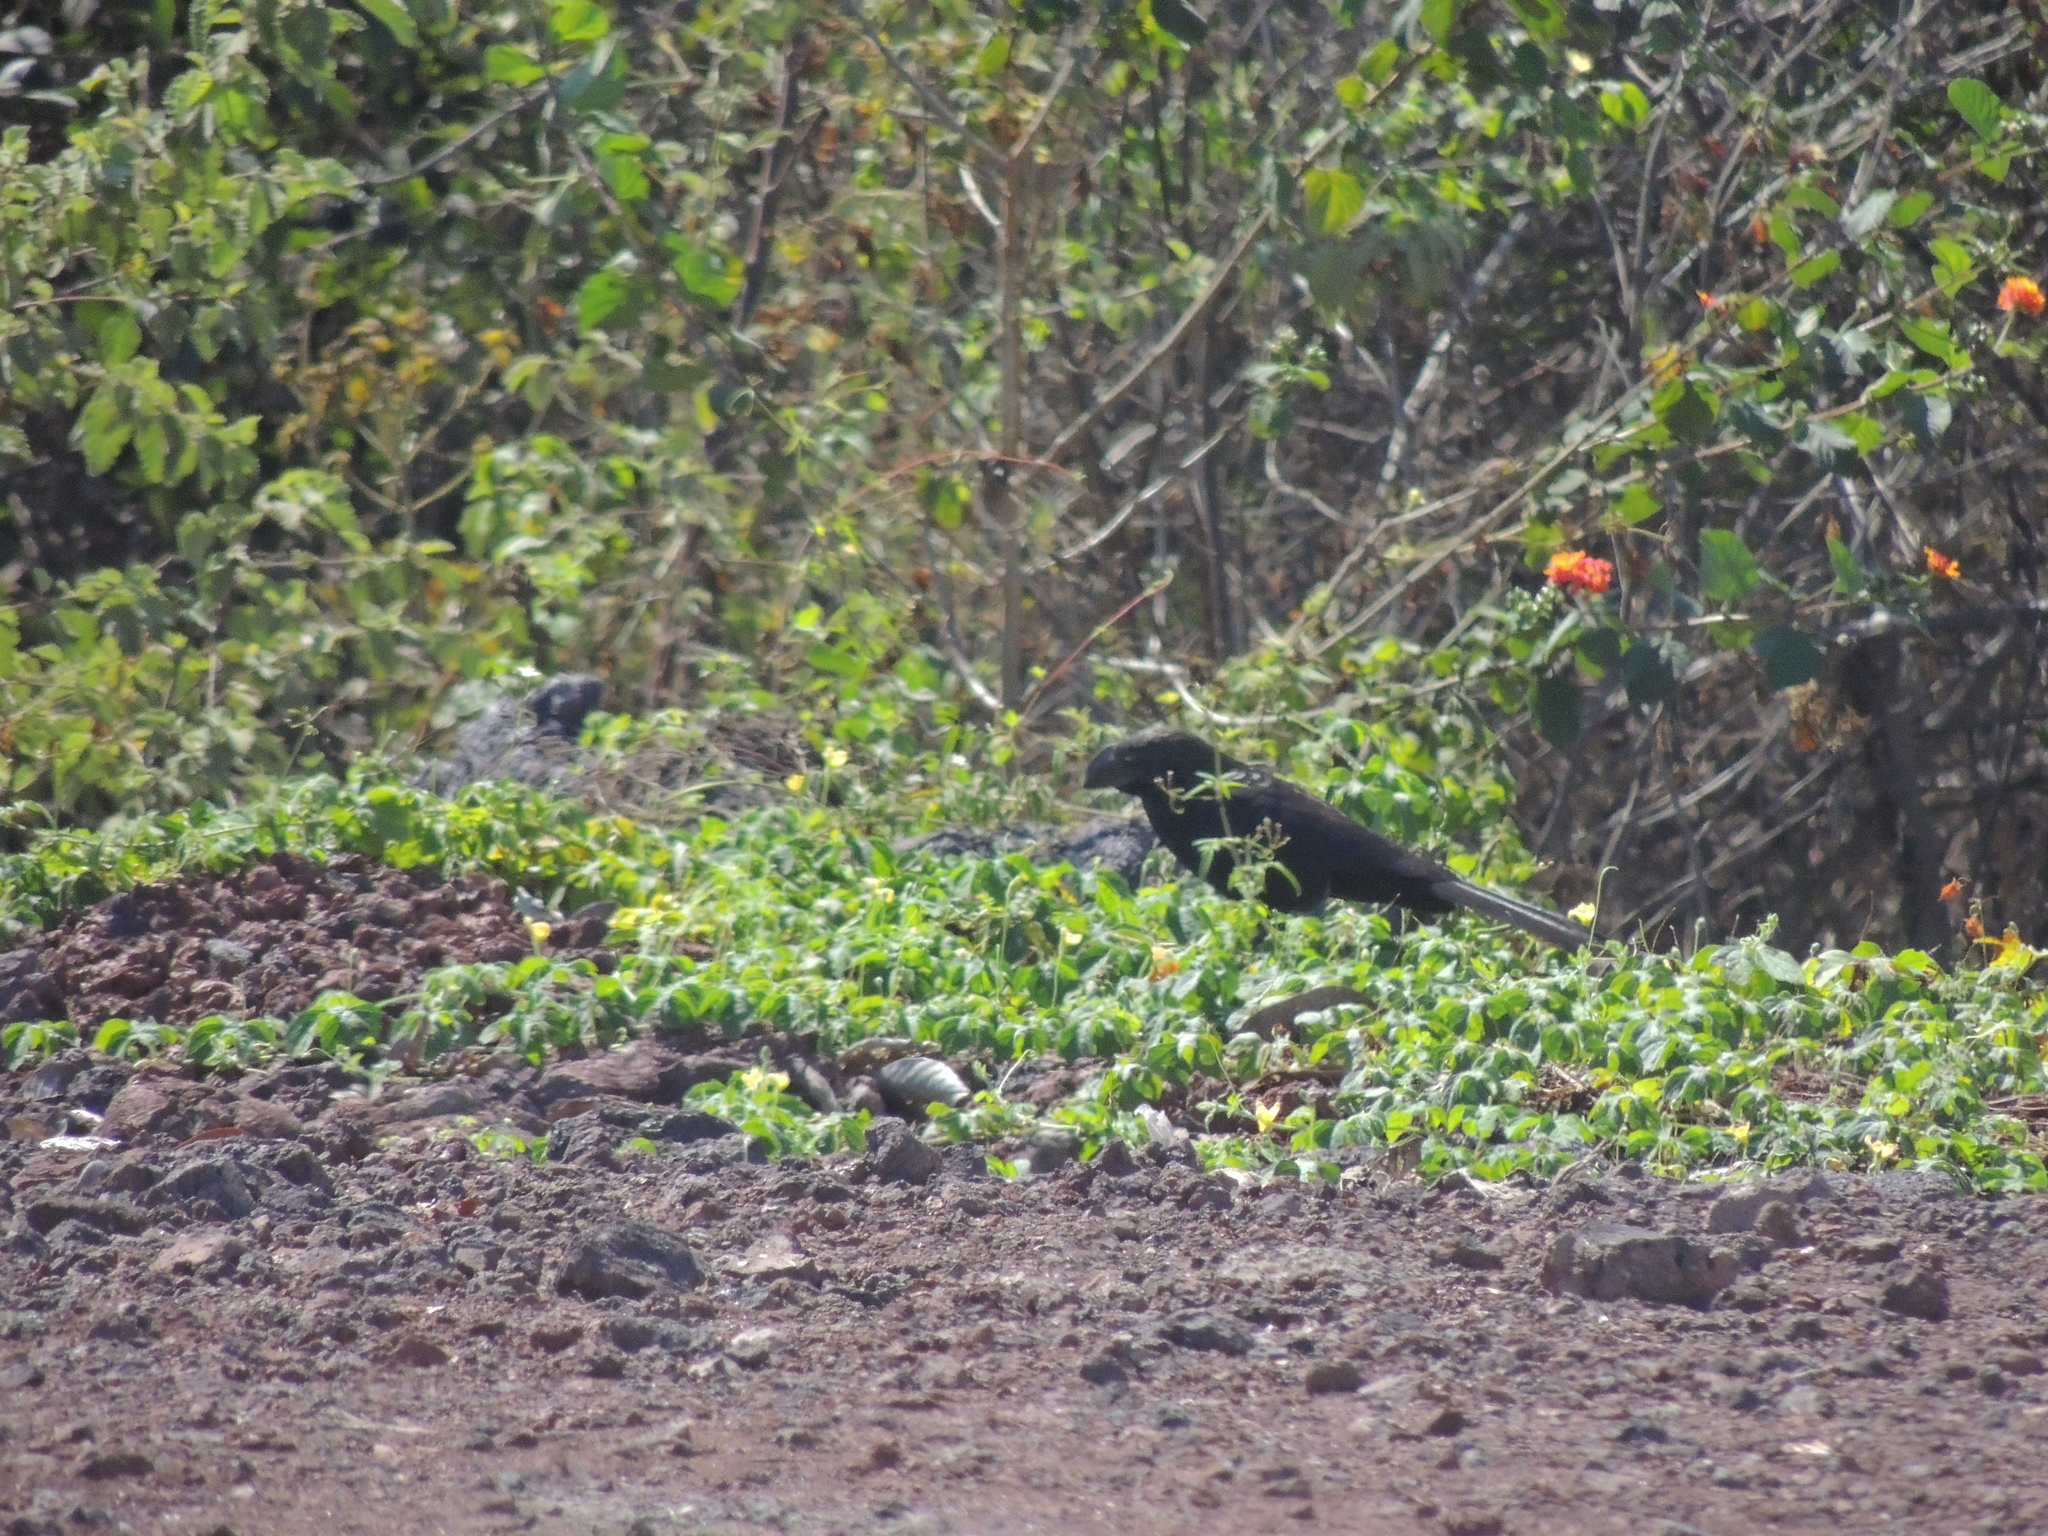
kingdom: Animalia
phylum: Chordata
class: Aves
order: Cuculiformes
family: Cuculidae
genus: Crotophaga
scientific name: Crotophaga ani
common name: Smooth-billed ani
